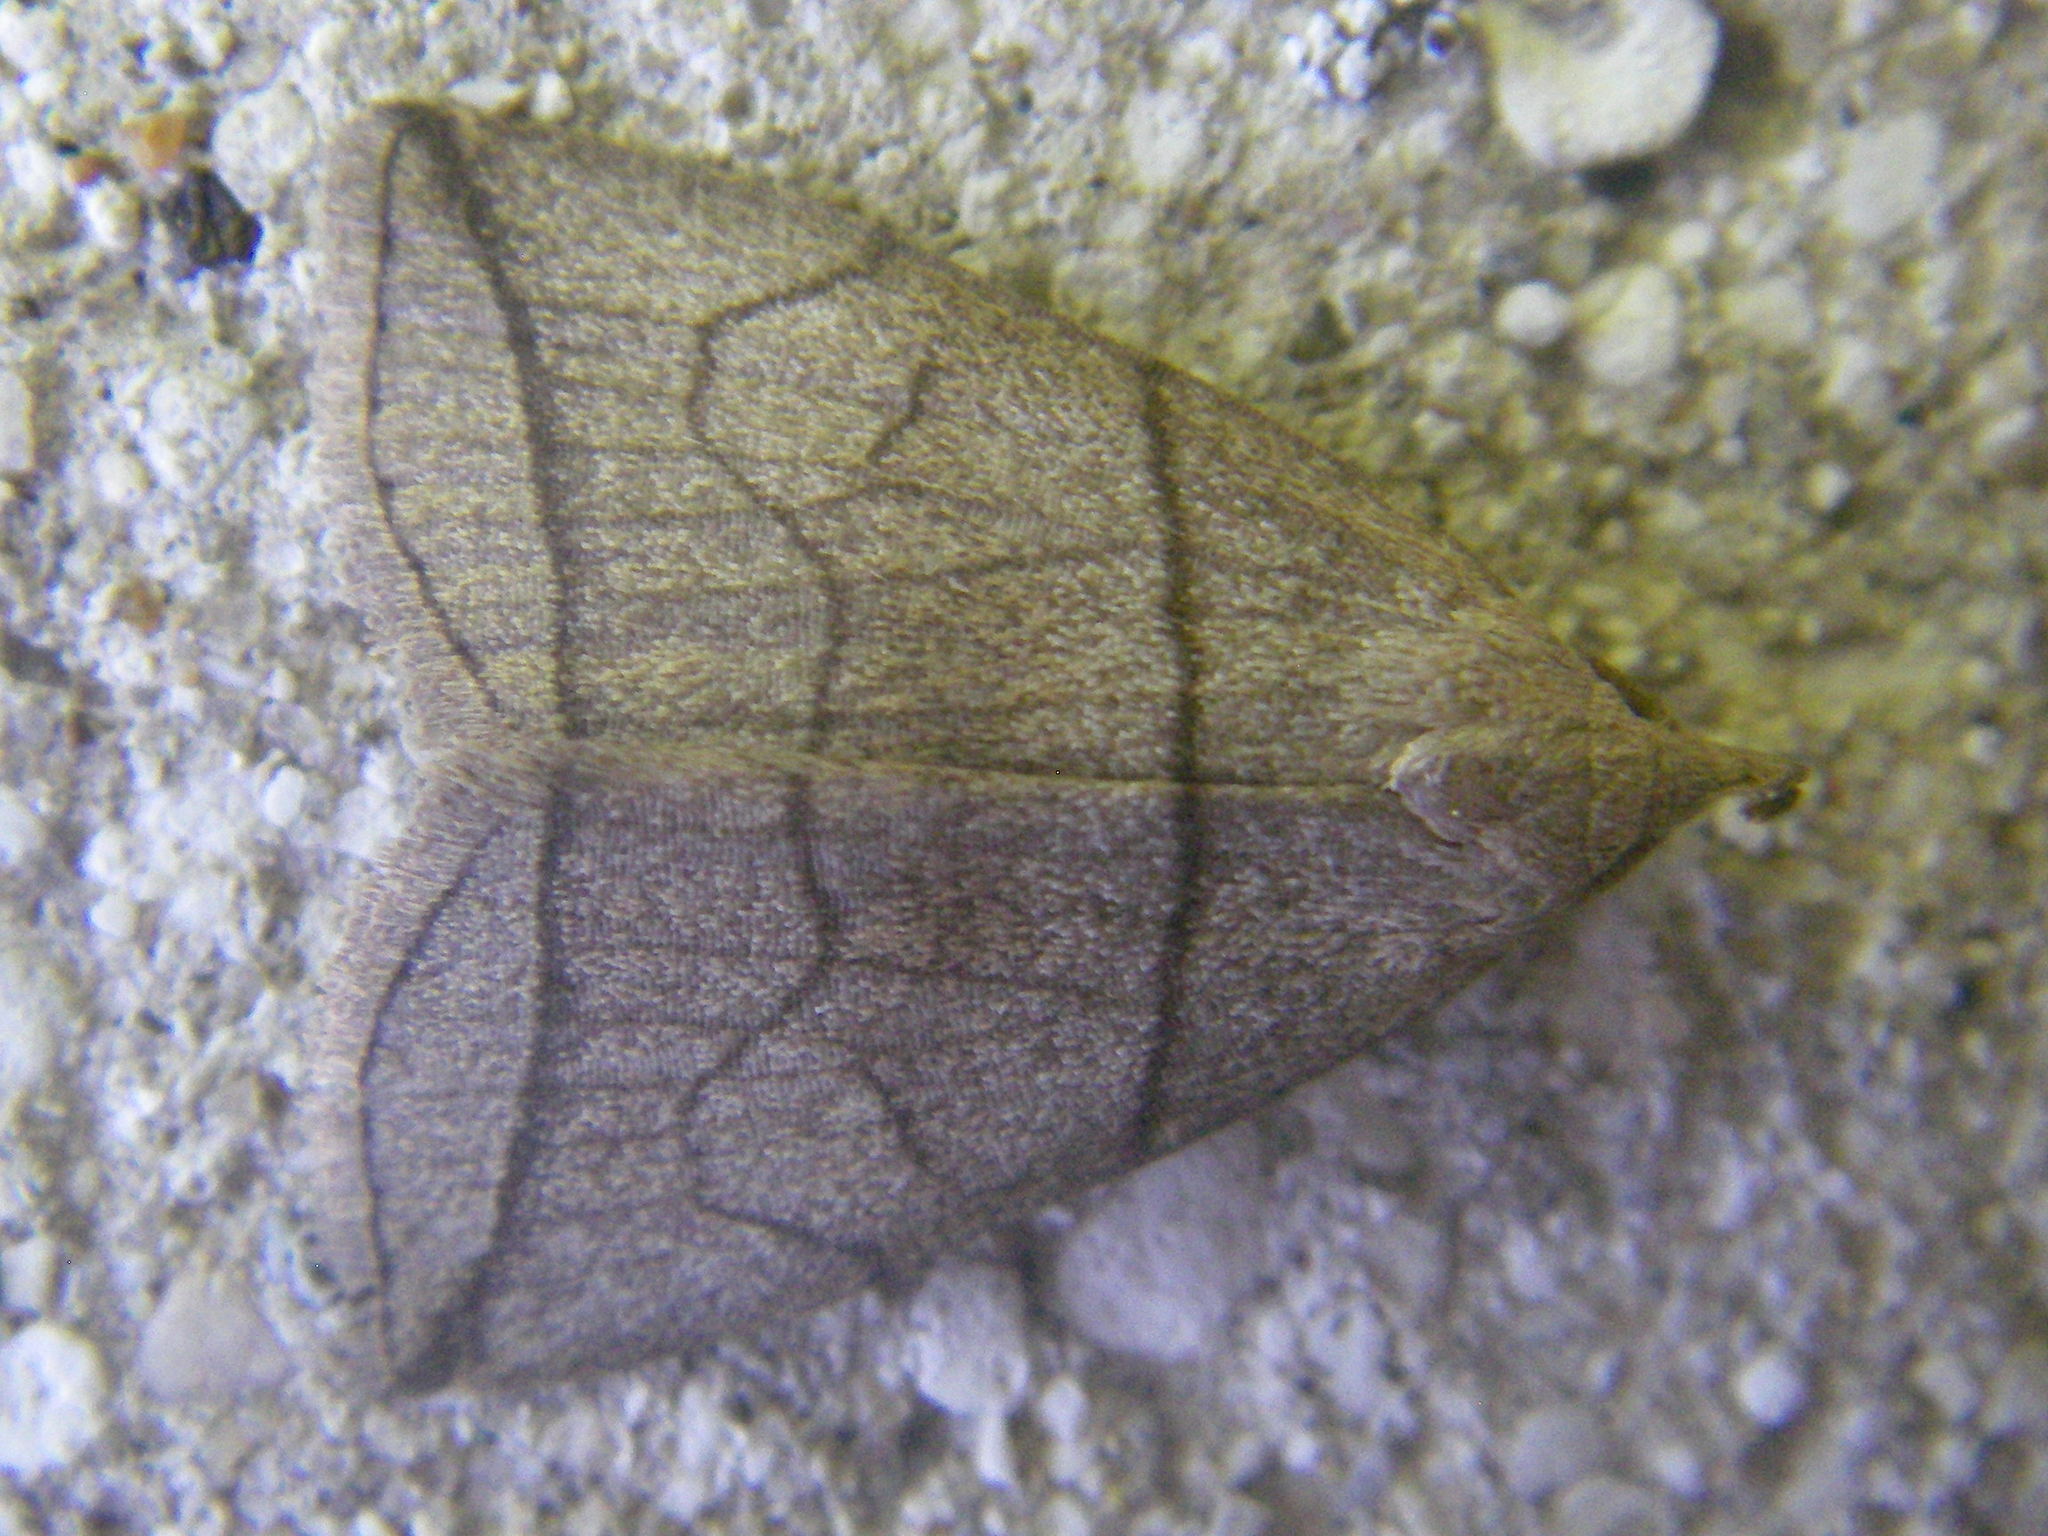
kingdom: Animalia
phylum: Arthropoda
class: Insecta
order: Lepidoptera
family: Erebidae
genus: Herminia
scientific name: Herminia grisealis
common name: Small fan-foot
